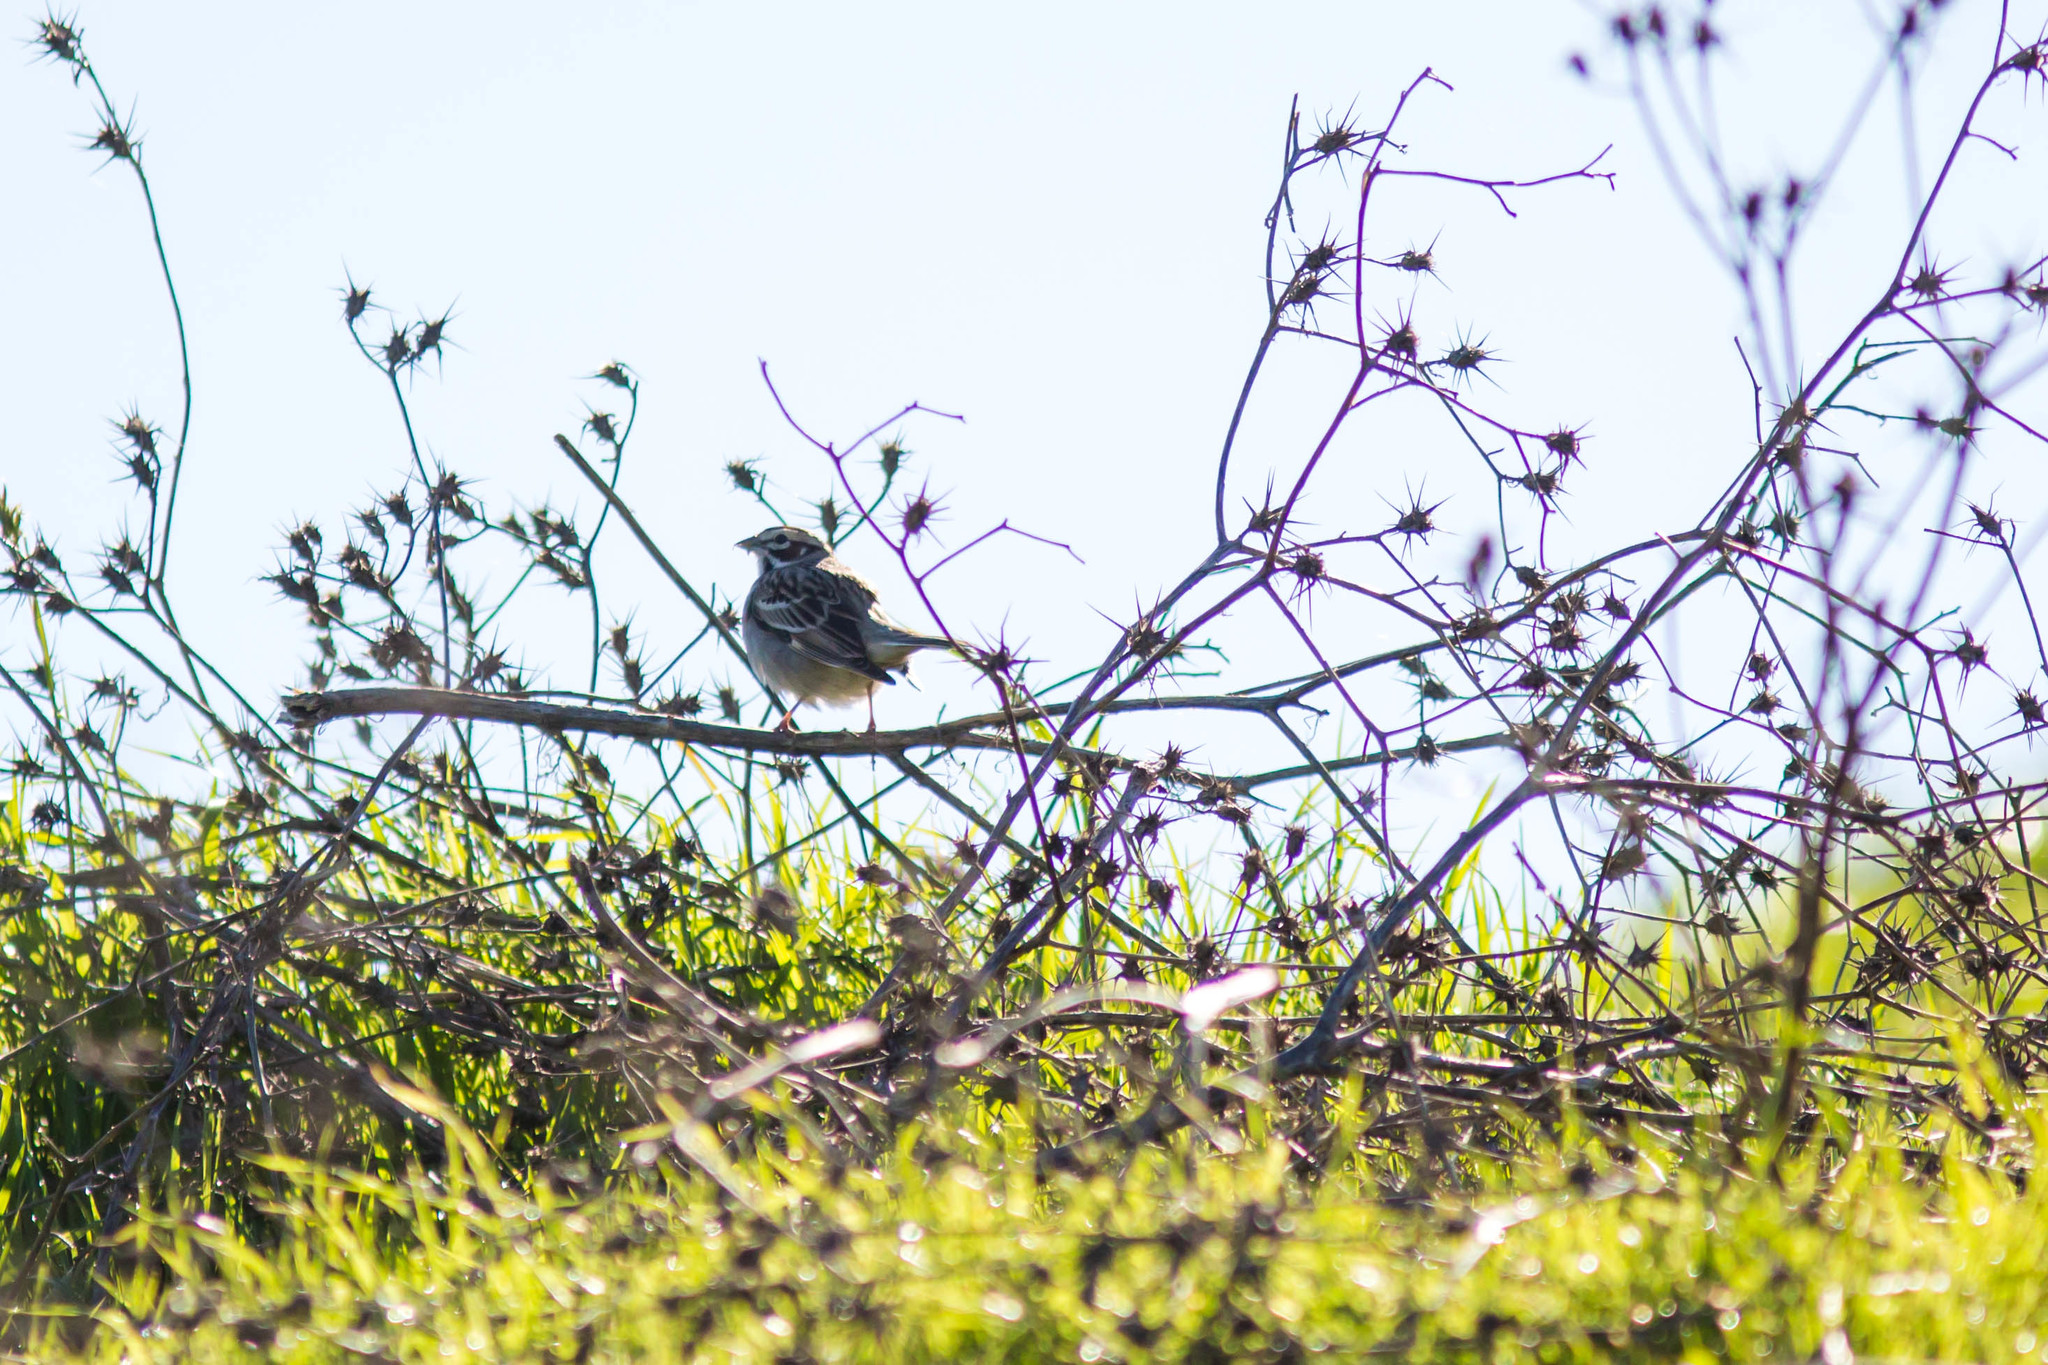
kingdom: Animalia
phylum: Chordata
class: Aves
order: Passeriformes
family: Passerellidae
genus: Chondestes
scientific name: Chondestes grammacus
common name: Lark sparrow
